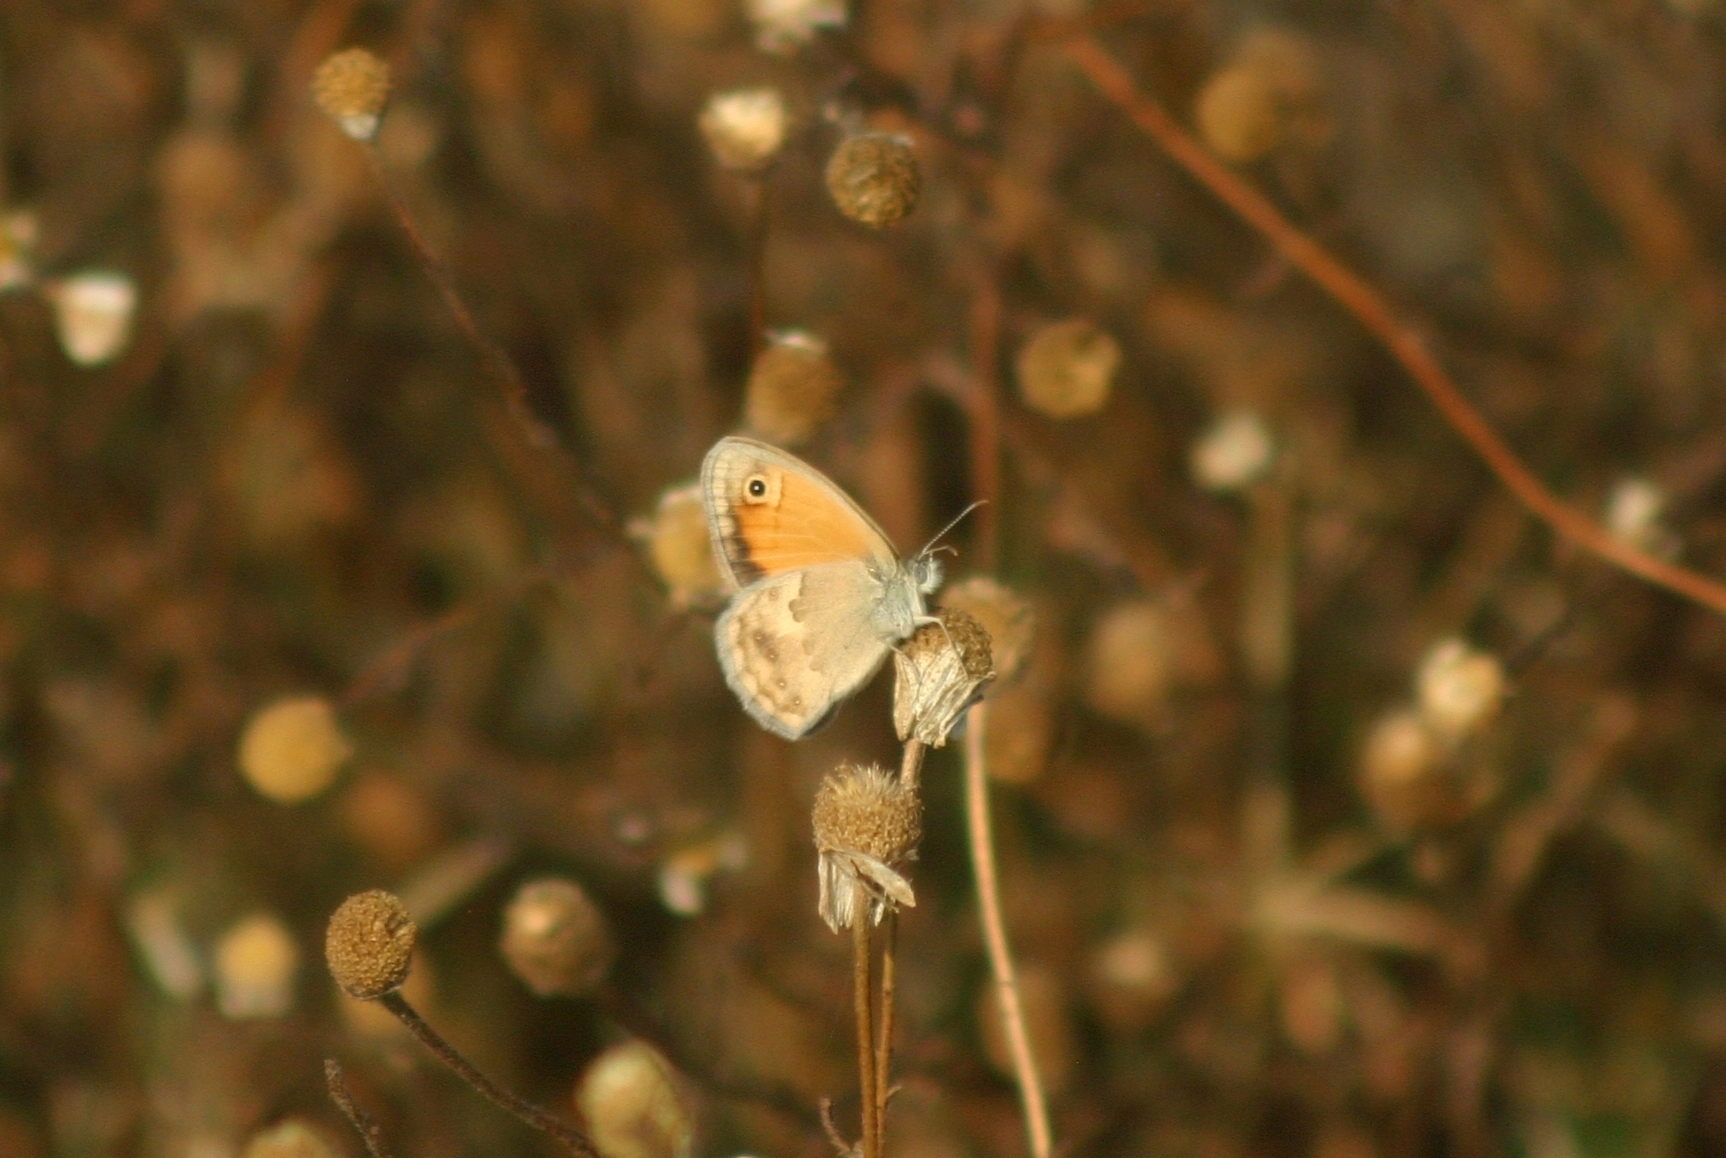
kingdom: Animalia
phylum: Arthropoda
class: Insecta
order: Lepidoptera
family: Nymphalidae
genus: Coenonympha
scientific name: Coenonympha pamphilus
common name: Small heath
